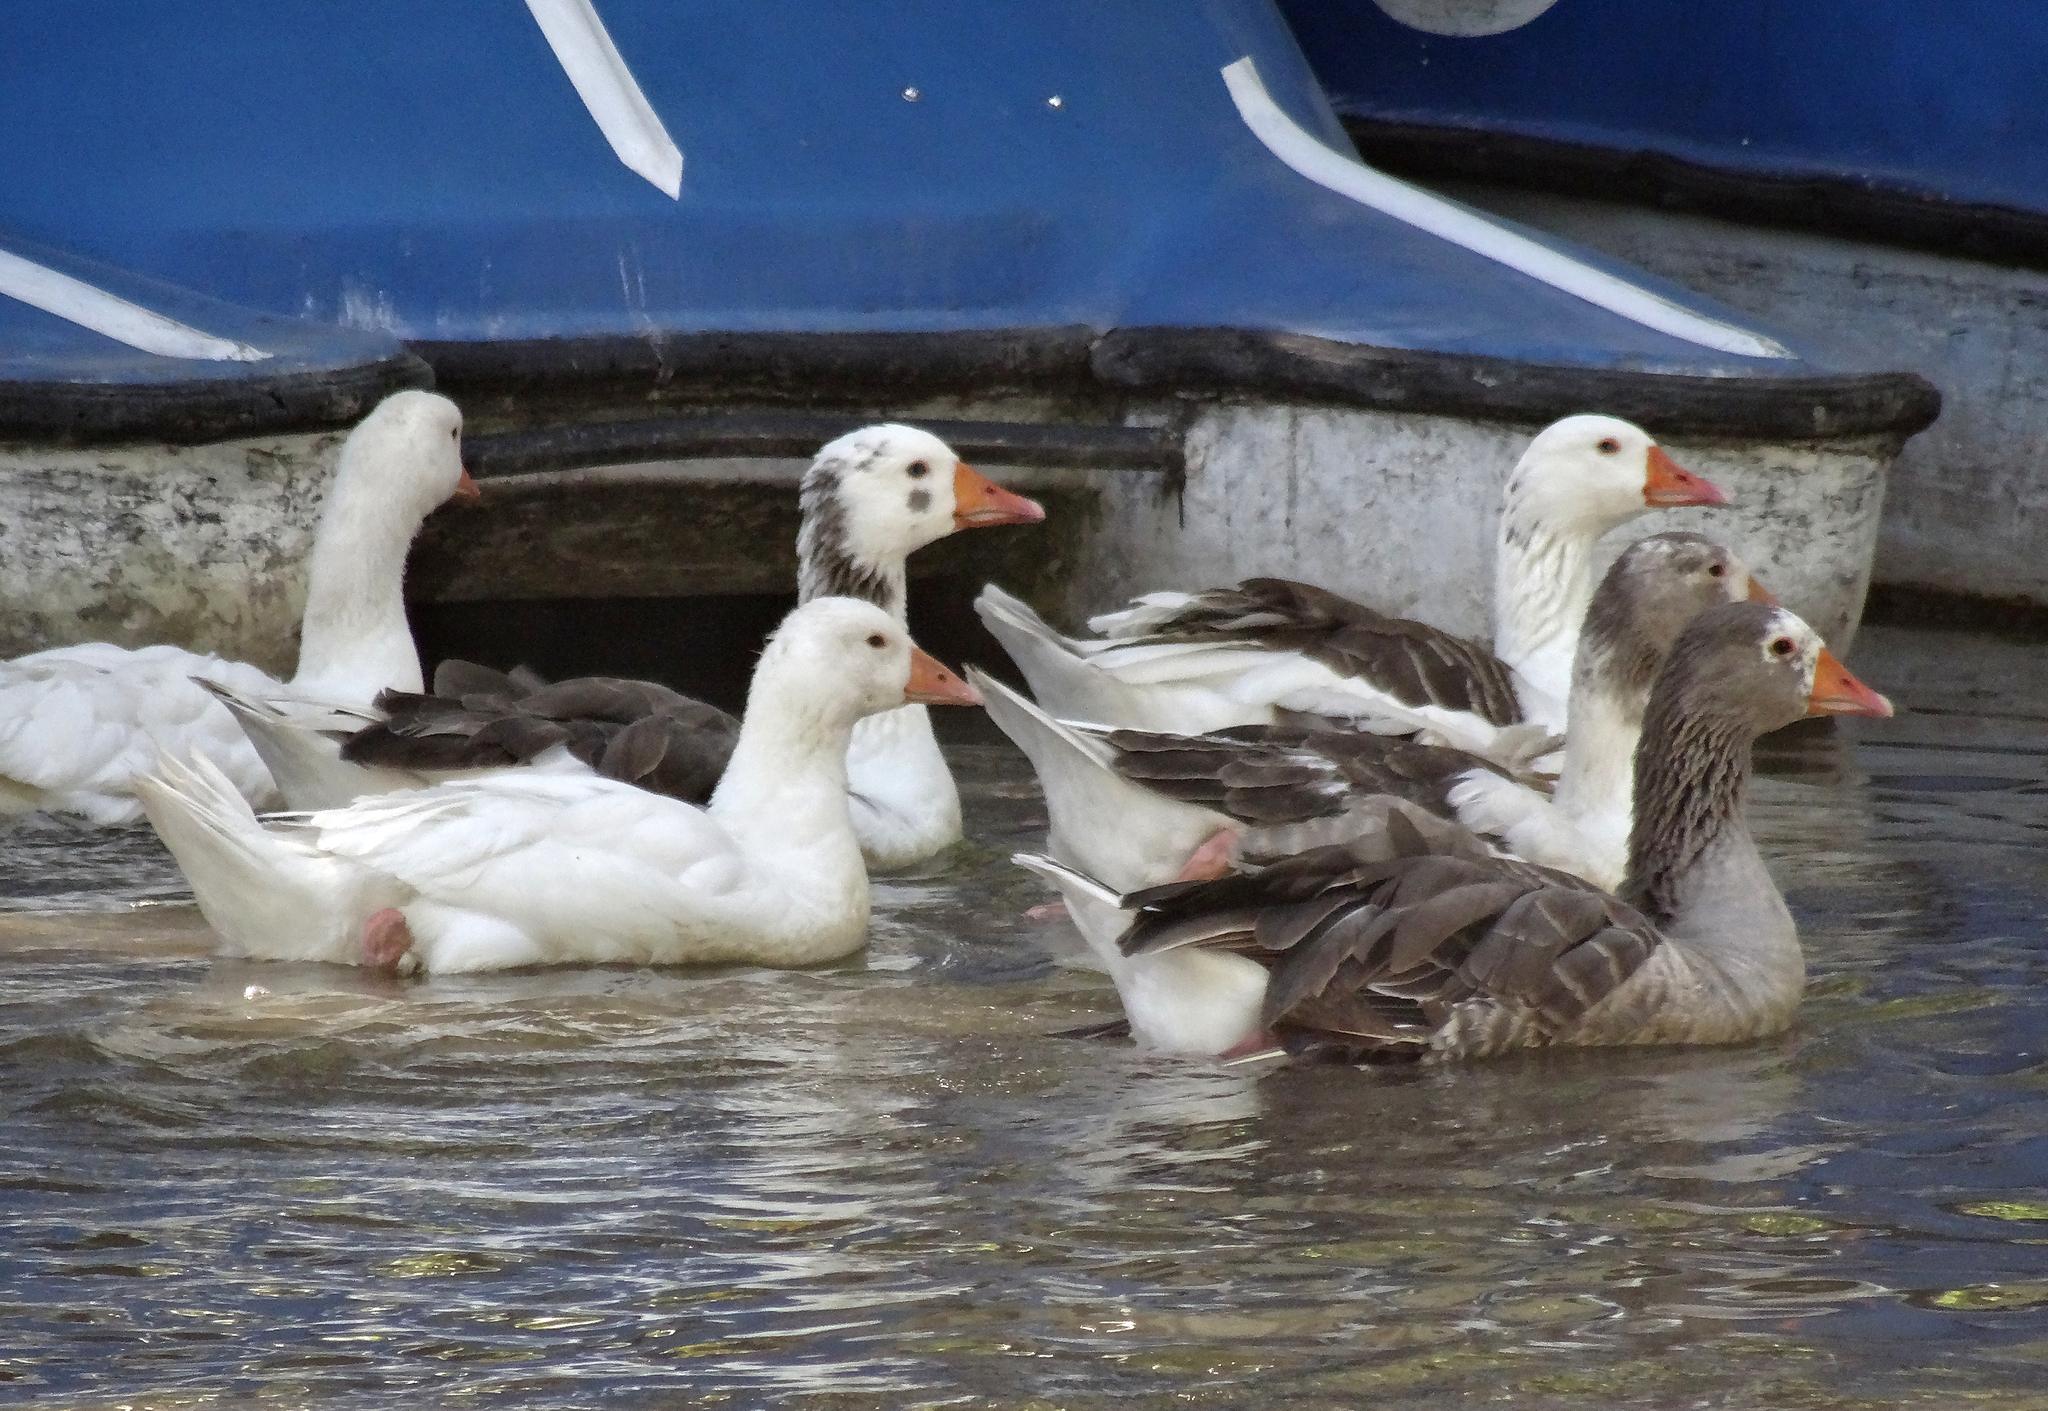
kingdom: Animalia
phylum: Chordata
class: Aves
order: Anseriformes
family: Anatidae
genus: Anser
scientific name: Anser anser
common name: Greylag goose
